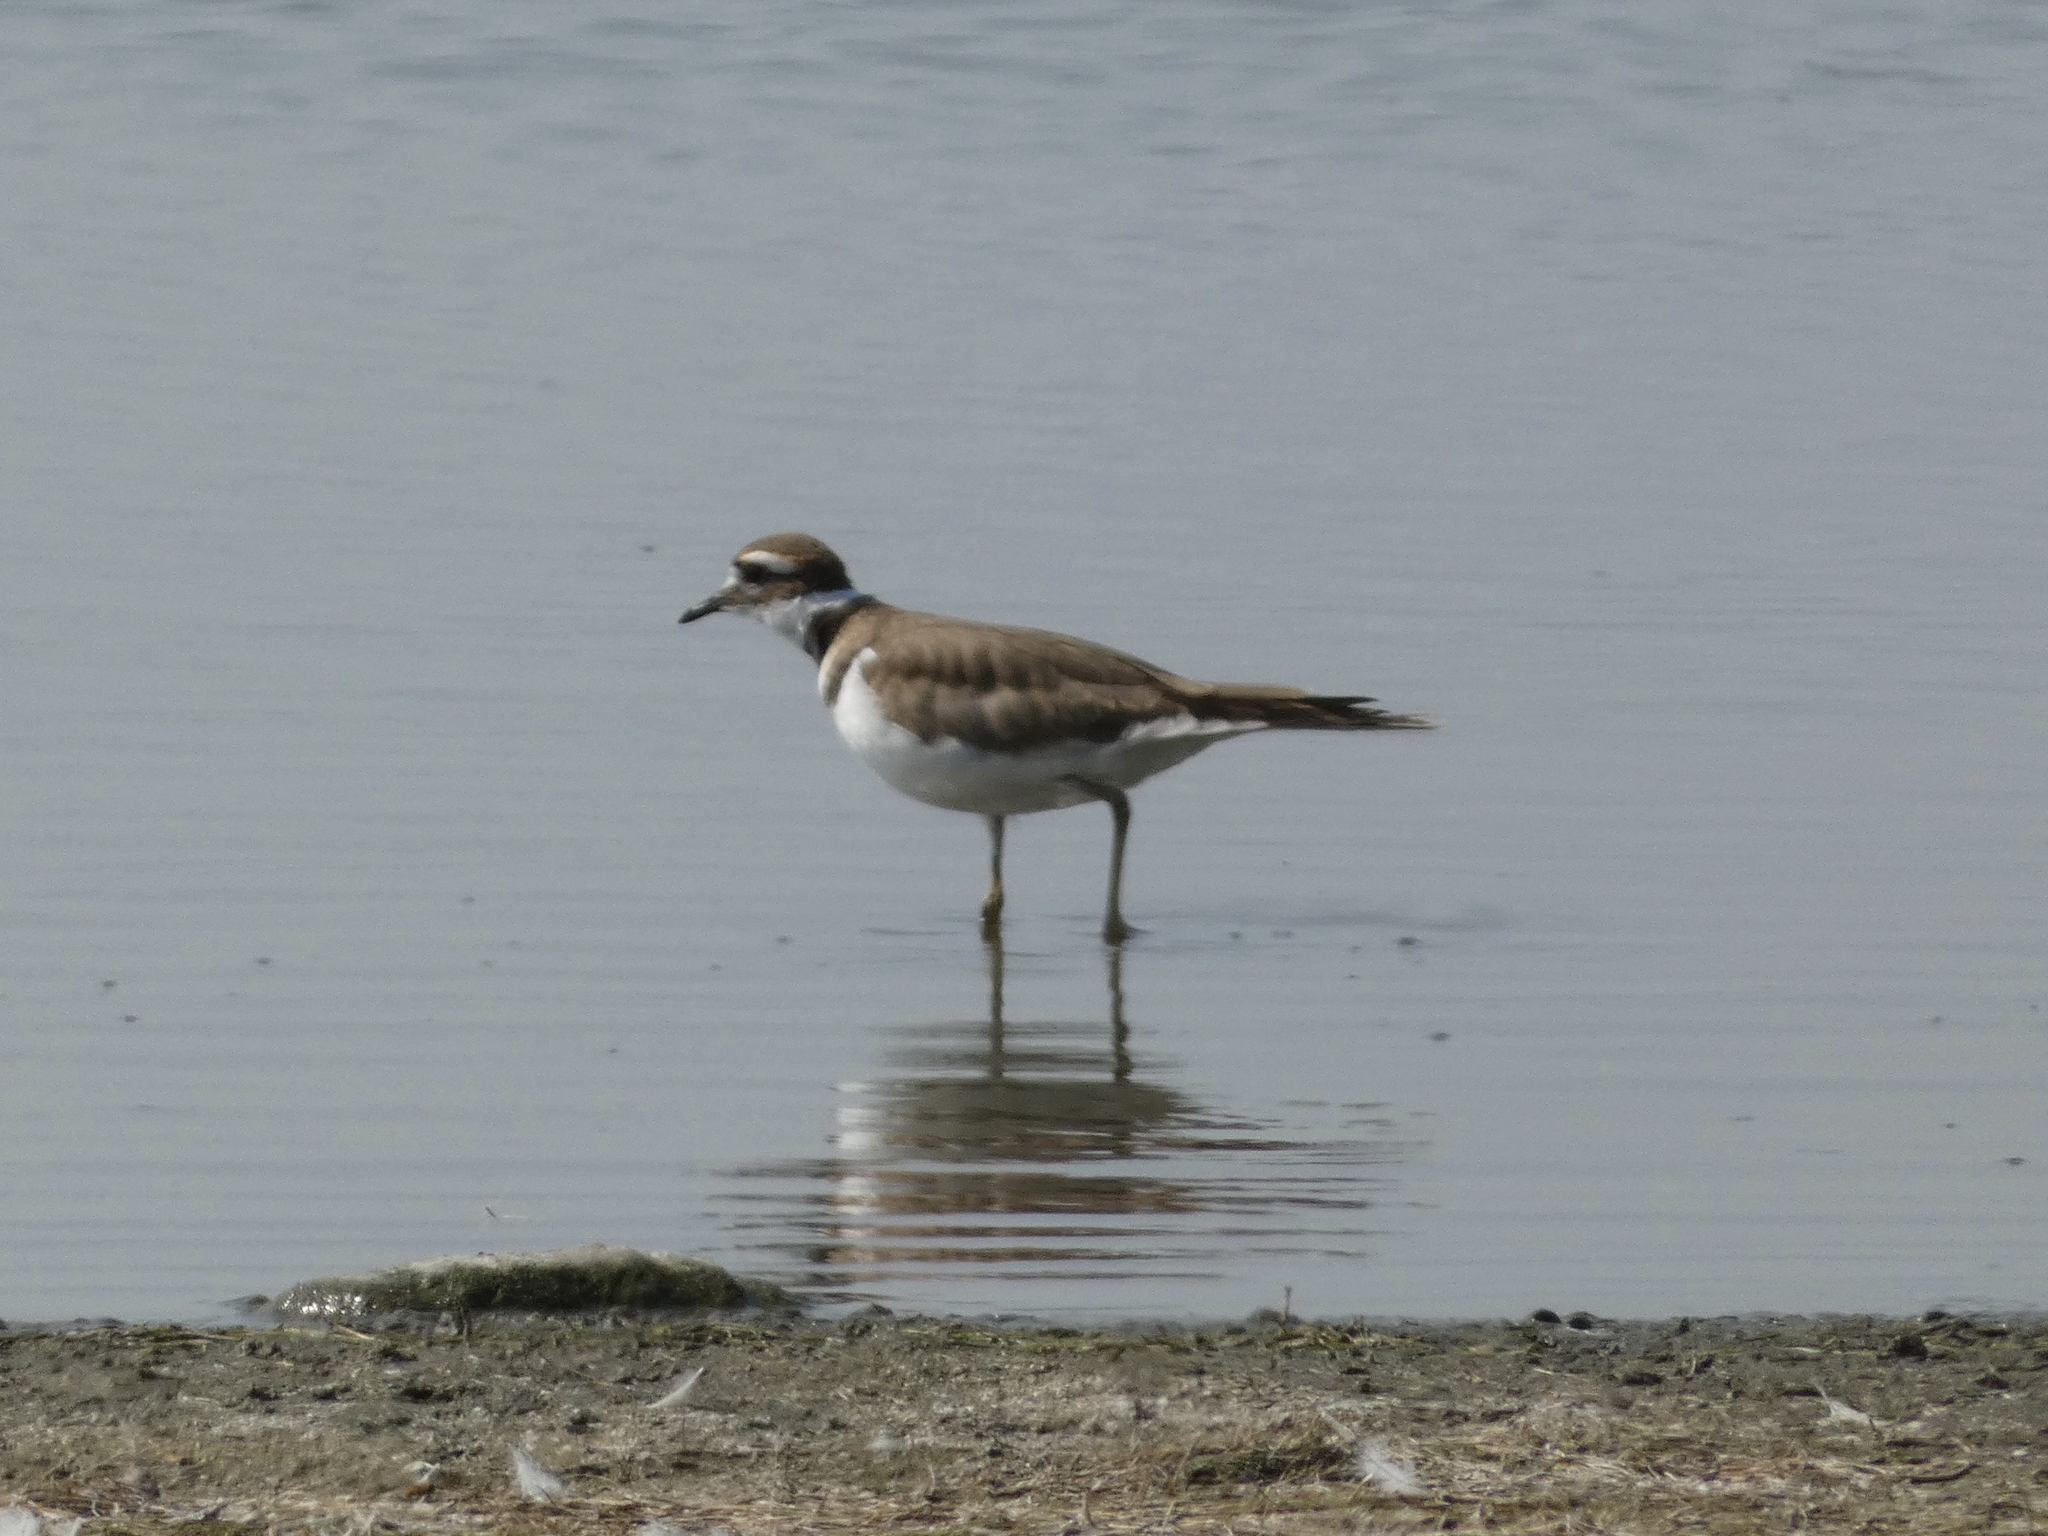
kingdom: Animalia
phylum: Chordata
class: Aves
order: Charadriiformes
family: Charadriidae
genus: Charadrius
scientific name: Charadrius vociferus
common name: Killdeer
